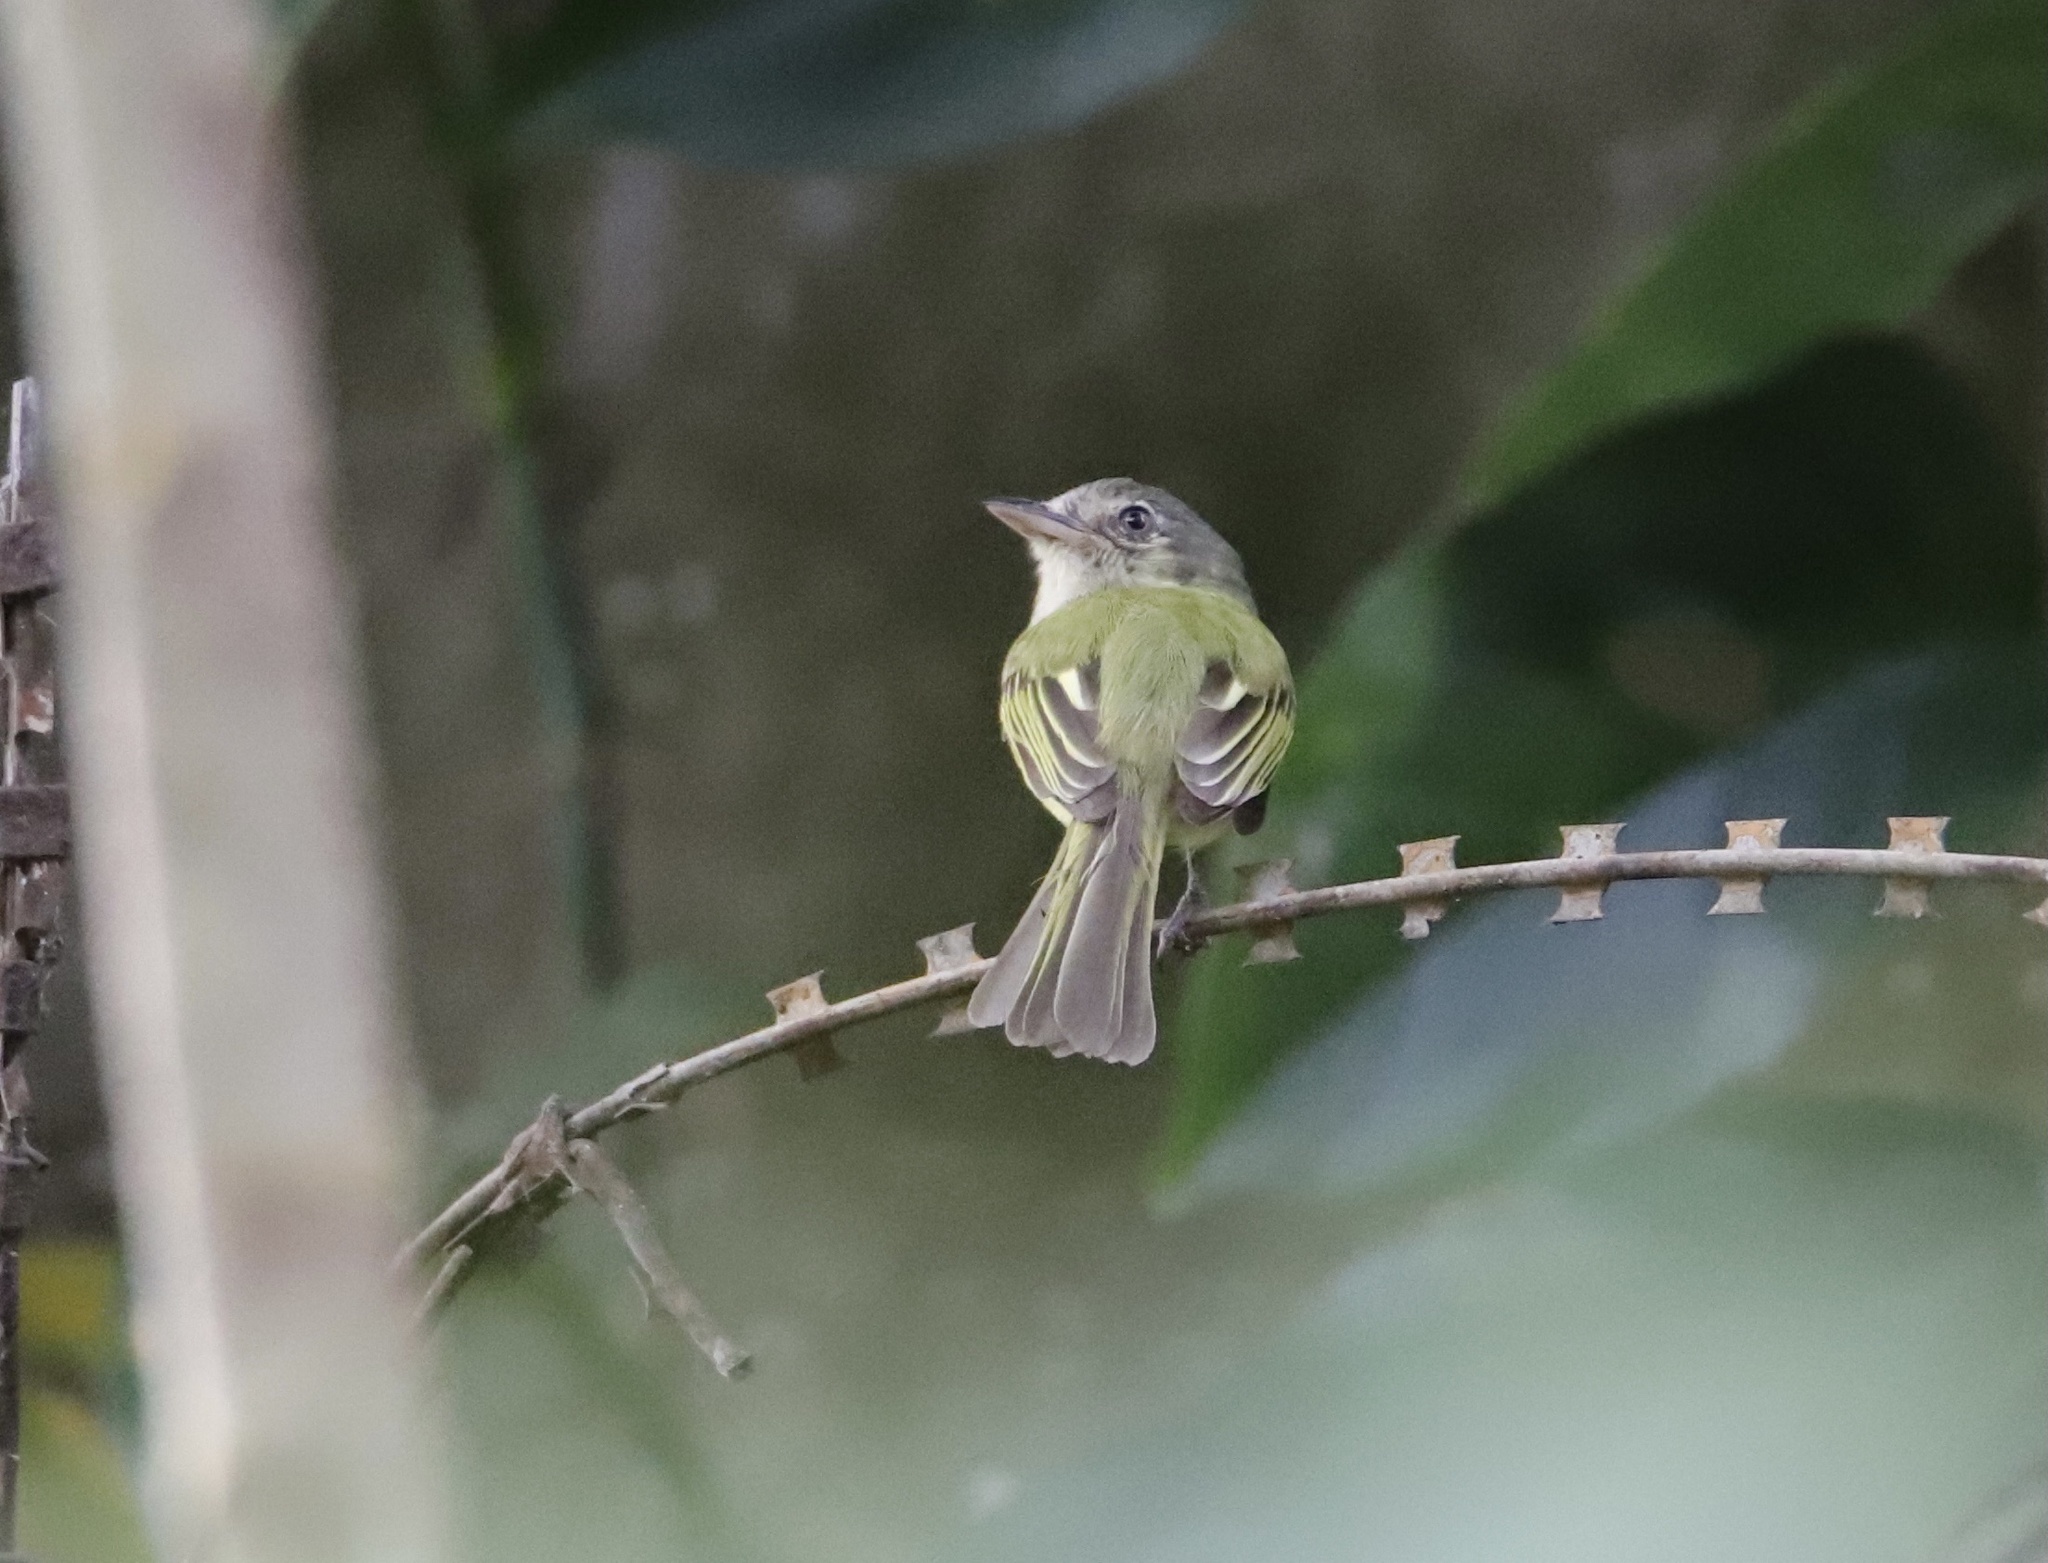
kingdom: Animalia
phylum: Chordata
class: Aves
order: Passeriformes
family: Tyrannidae
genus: Tolmomyias
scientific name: Tolmomyias sulphurescens
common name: Yellow-olive flycatcher
